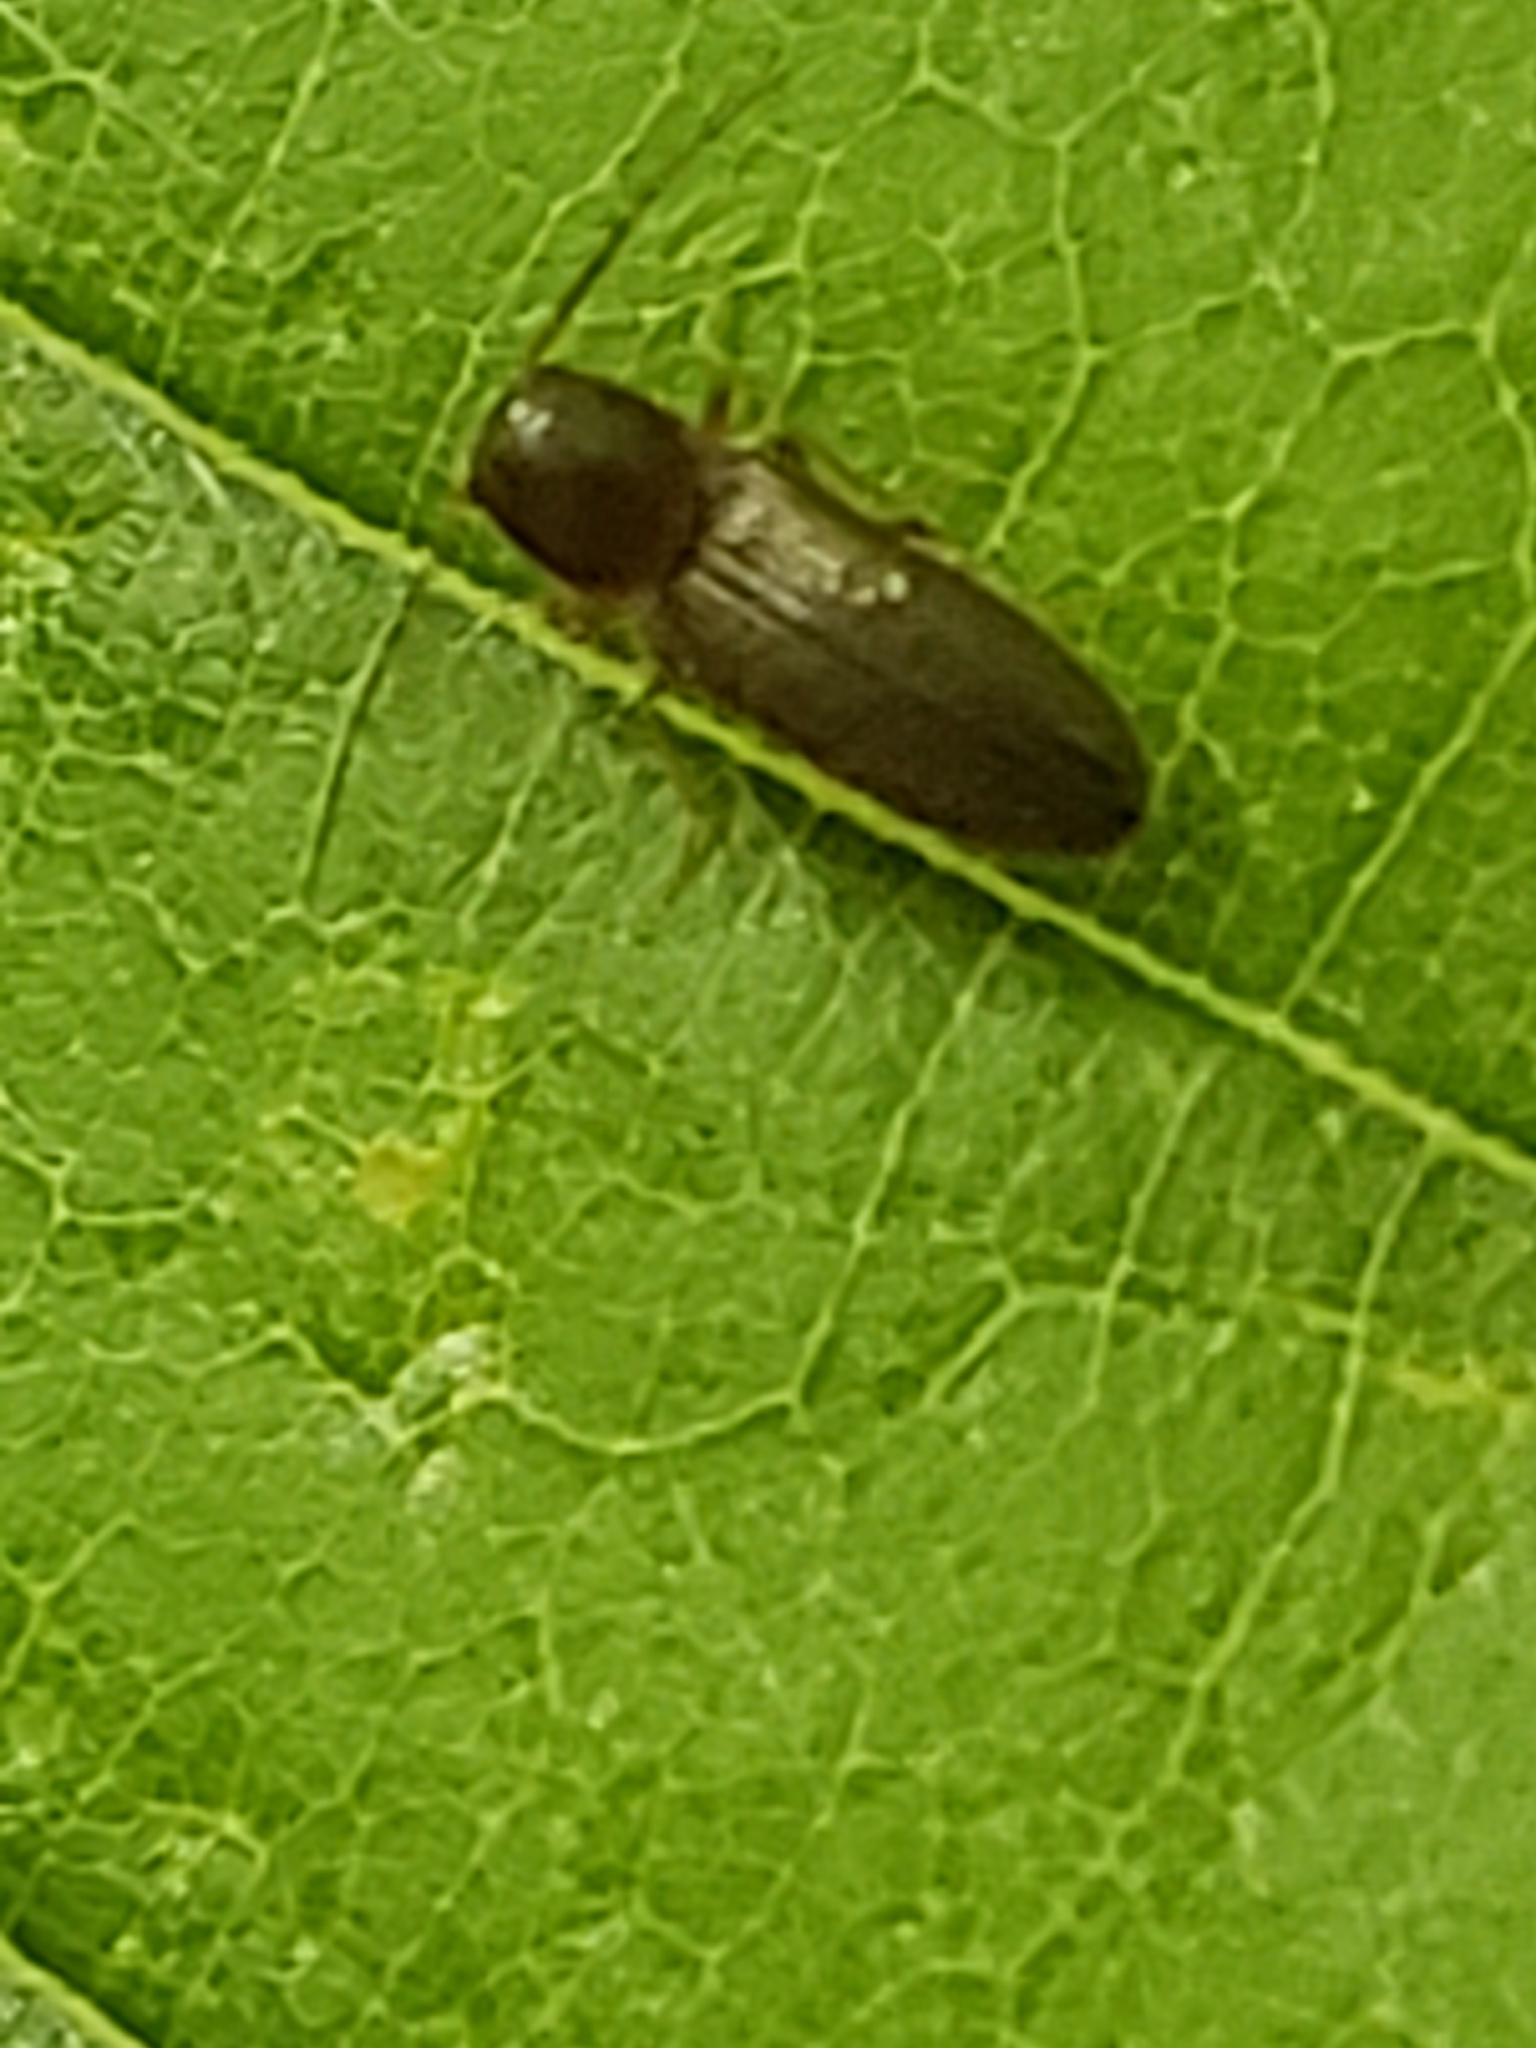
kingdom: Animalia
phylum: Arthropoda
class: Insecta
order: Coleoptera
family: Elateridae
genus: Tetralimonius
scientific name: Tetralimonius
